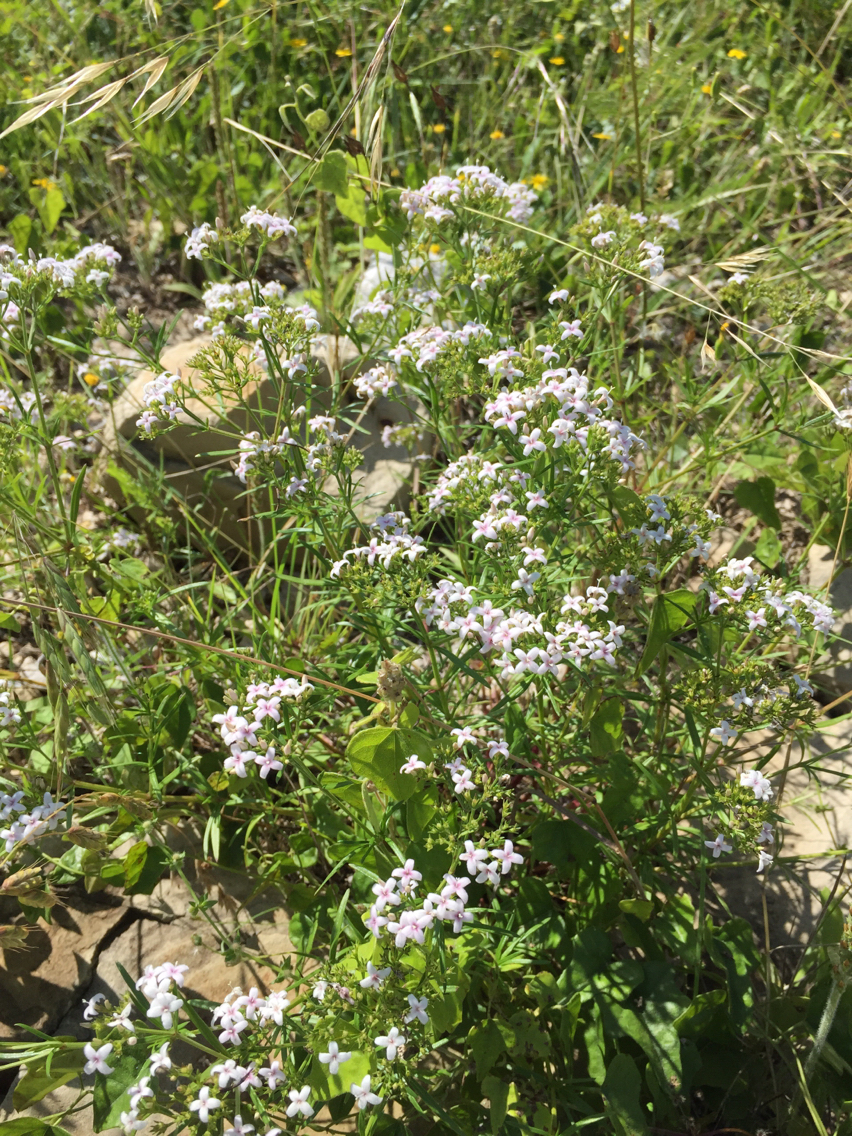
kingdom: Plantae
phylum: Tracheophyta
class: Magnoliopsida
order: Gentianales
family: Rubiaceae
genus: Stenaria
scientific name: Stenaria nigricans
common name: Diamondflowers
